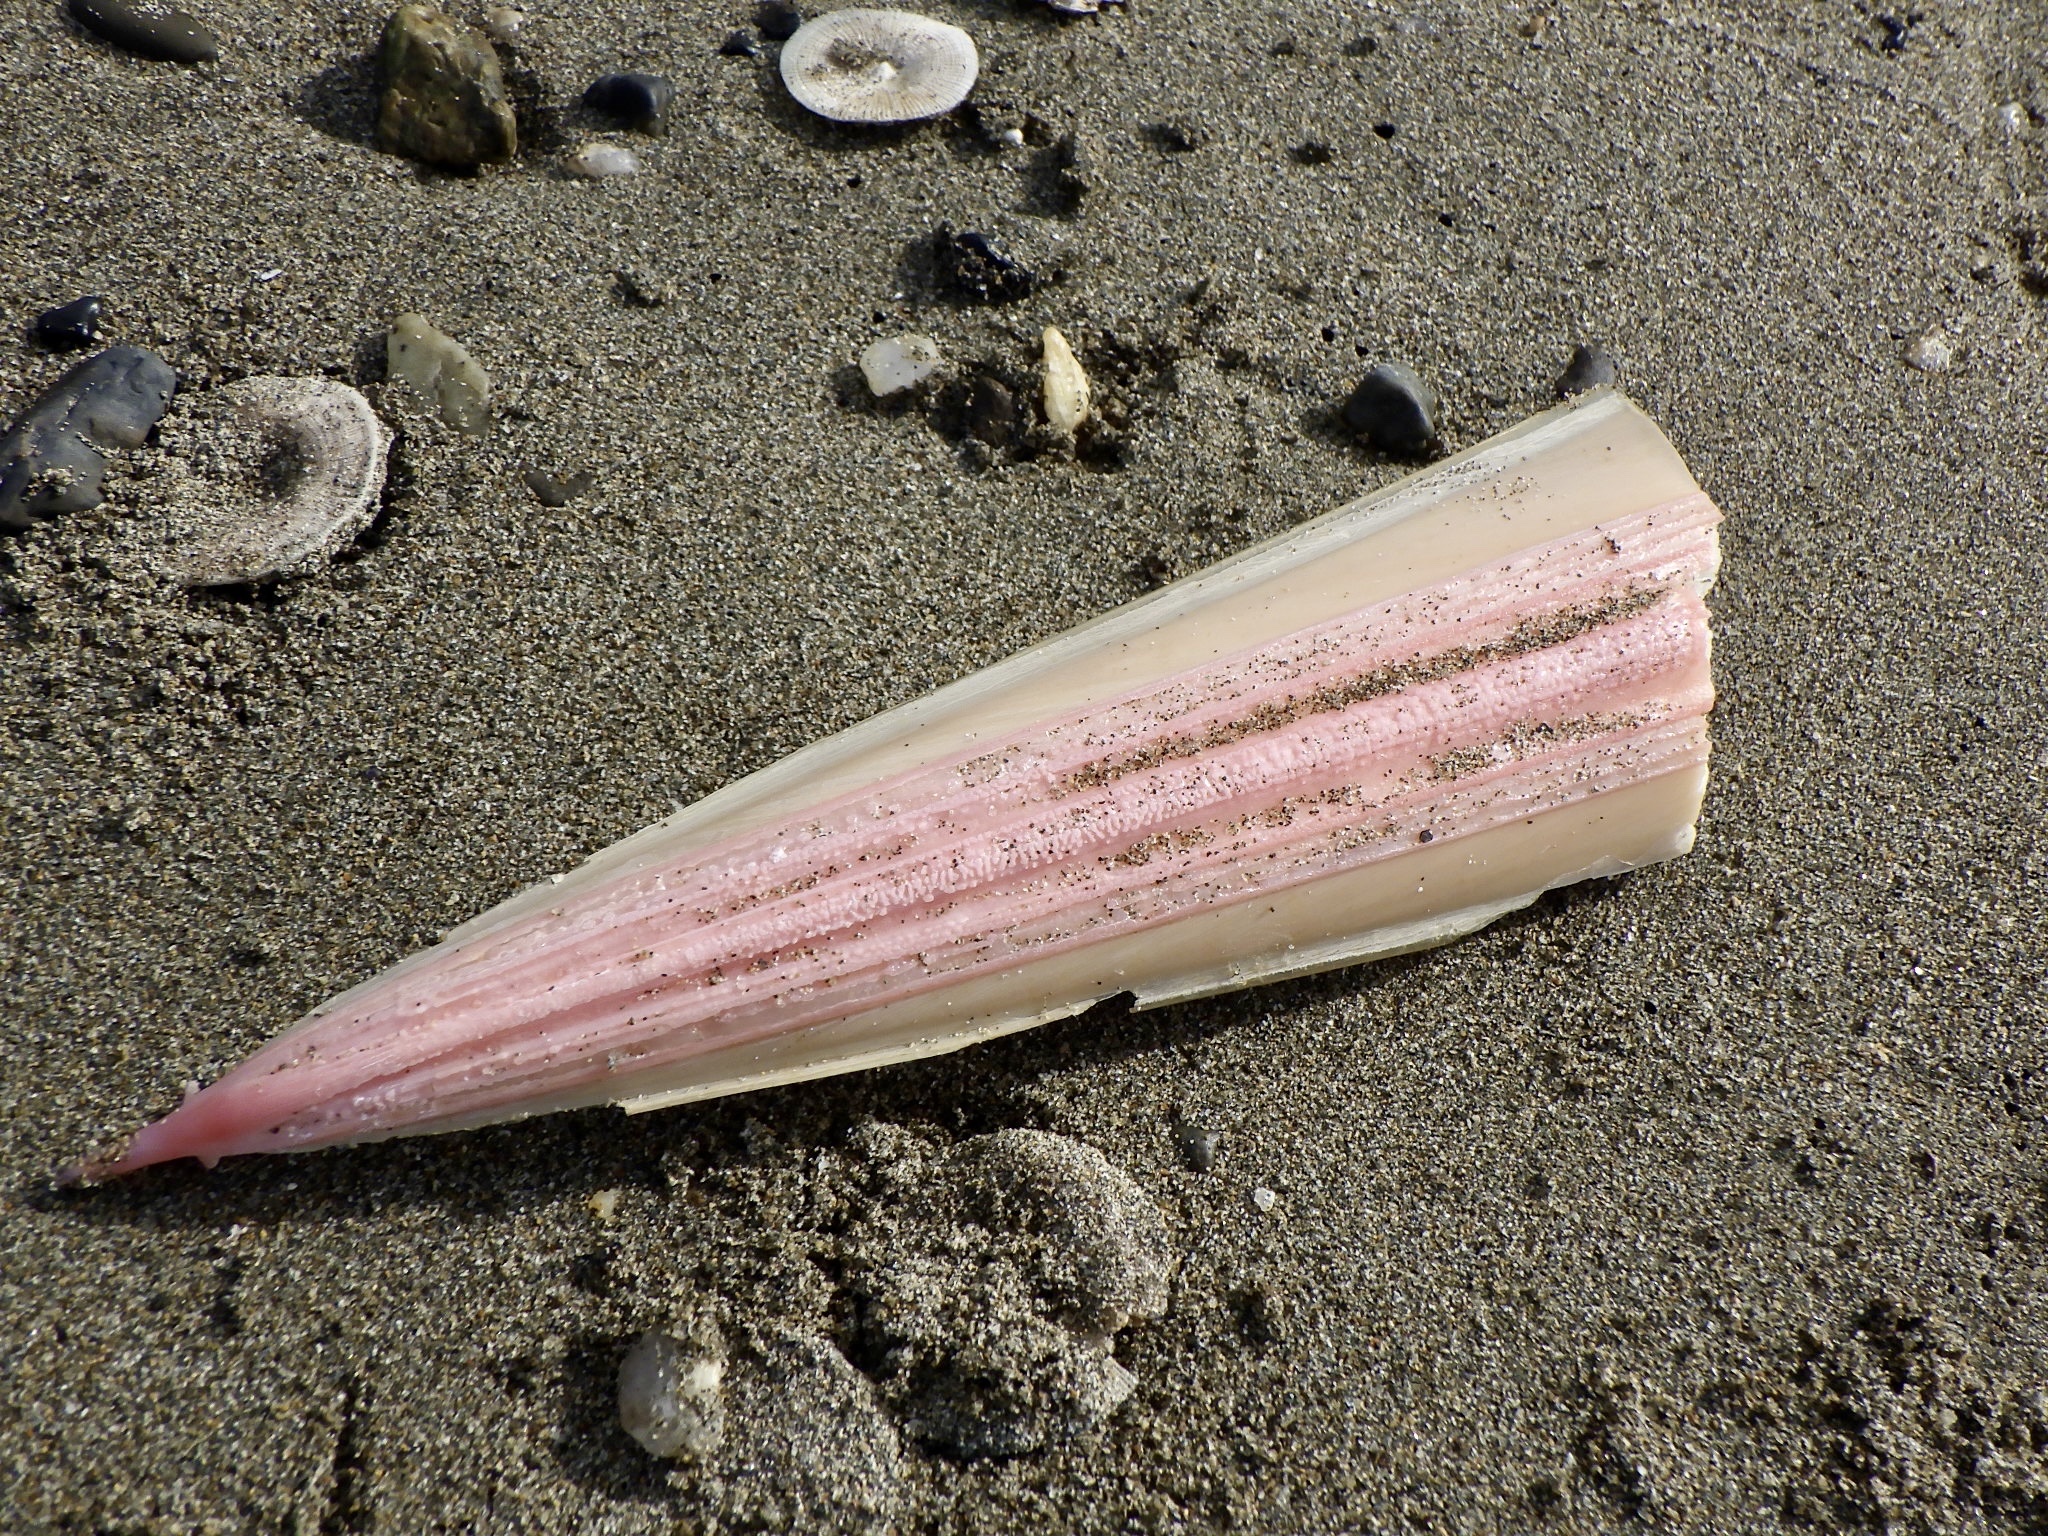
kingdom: Animalia
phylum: Mollusca
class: Cephalopoda
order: Sepiida
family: Sepiidae
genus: Doratosepion
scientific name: Doratosepion lorigerum
